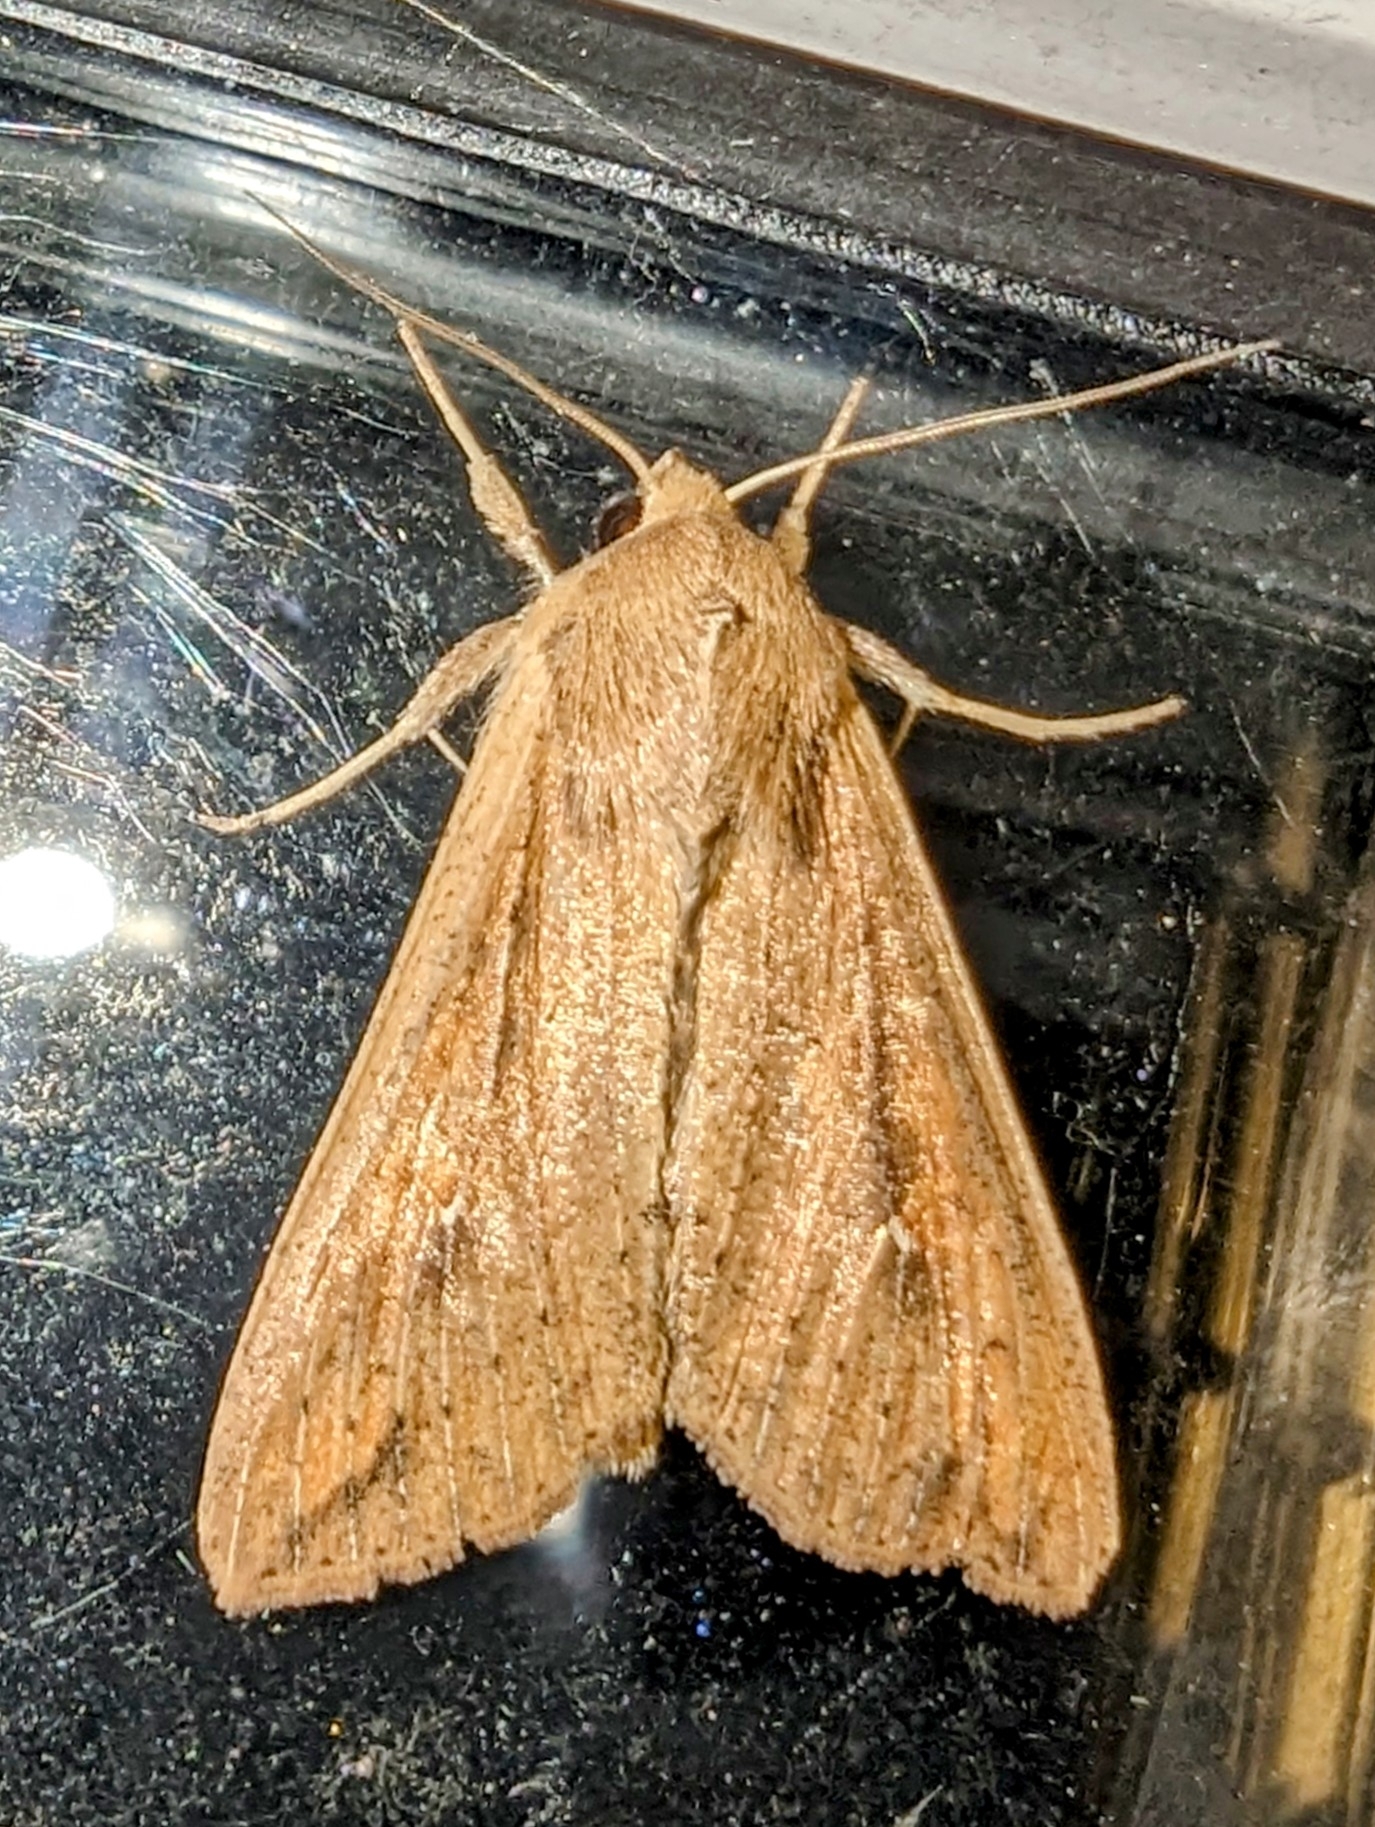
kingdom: Animalia
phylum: Arthropoda
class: Insecta
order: Lepidoptera
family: Noctuidae
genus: Mythimna
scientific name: Mythimna unipuncta
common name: White-speck
